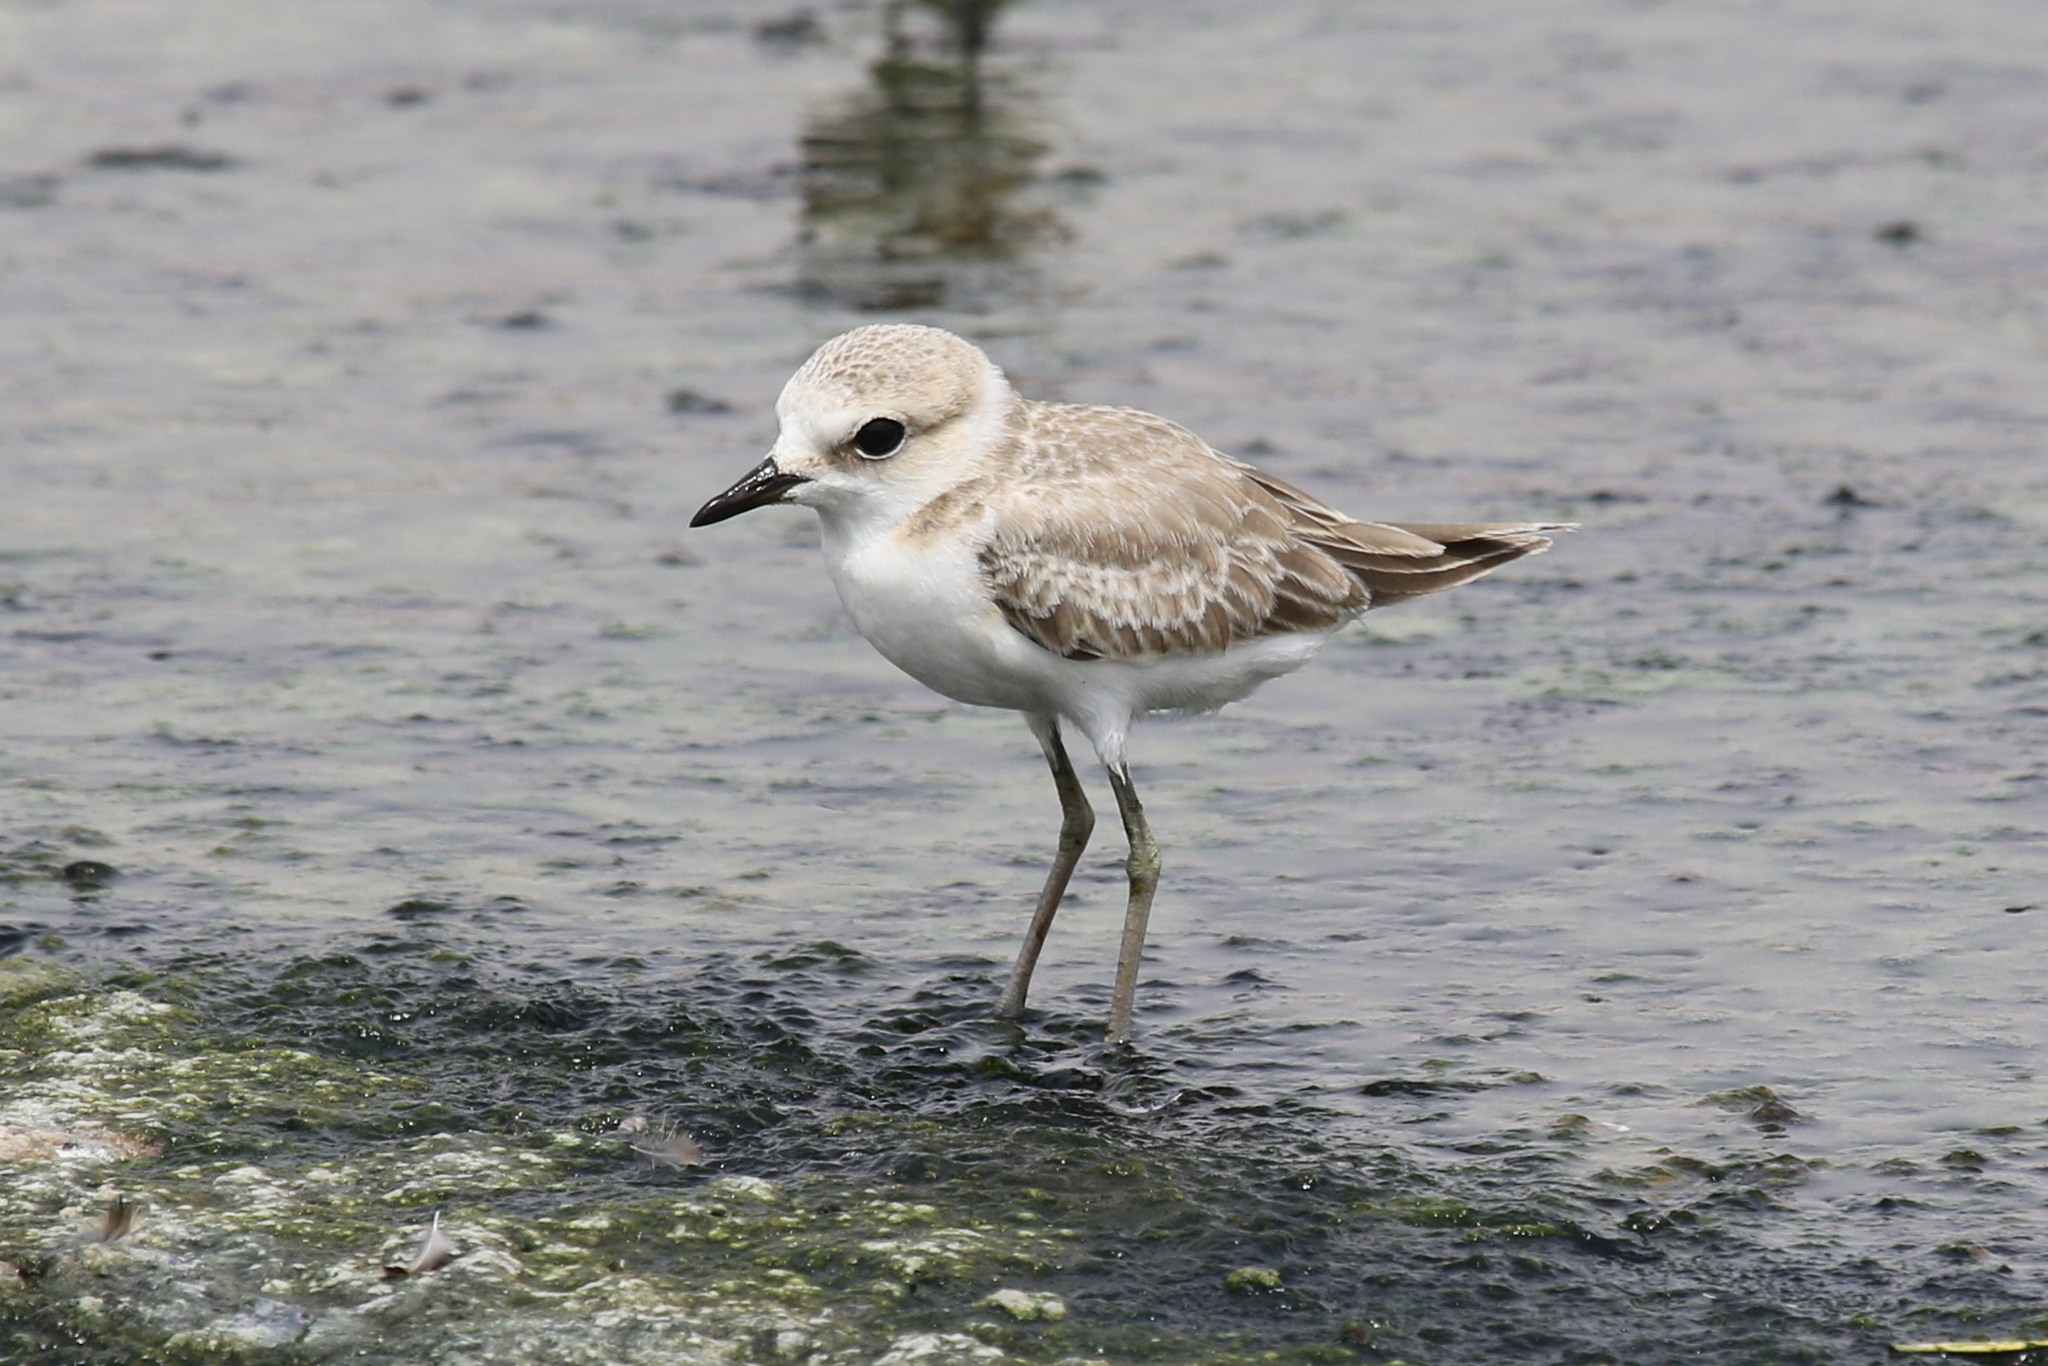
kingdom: Animalia
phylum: Chordata
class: Aves
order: Charadriiformes
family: Charadriidae
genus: Charadrius
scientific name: Charadrius alexandrinus
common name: Kentish plover
